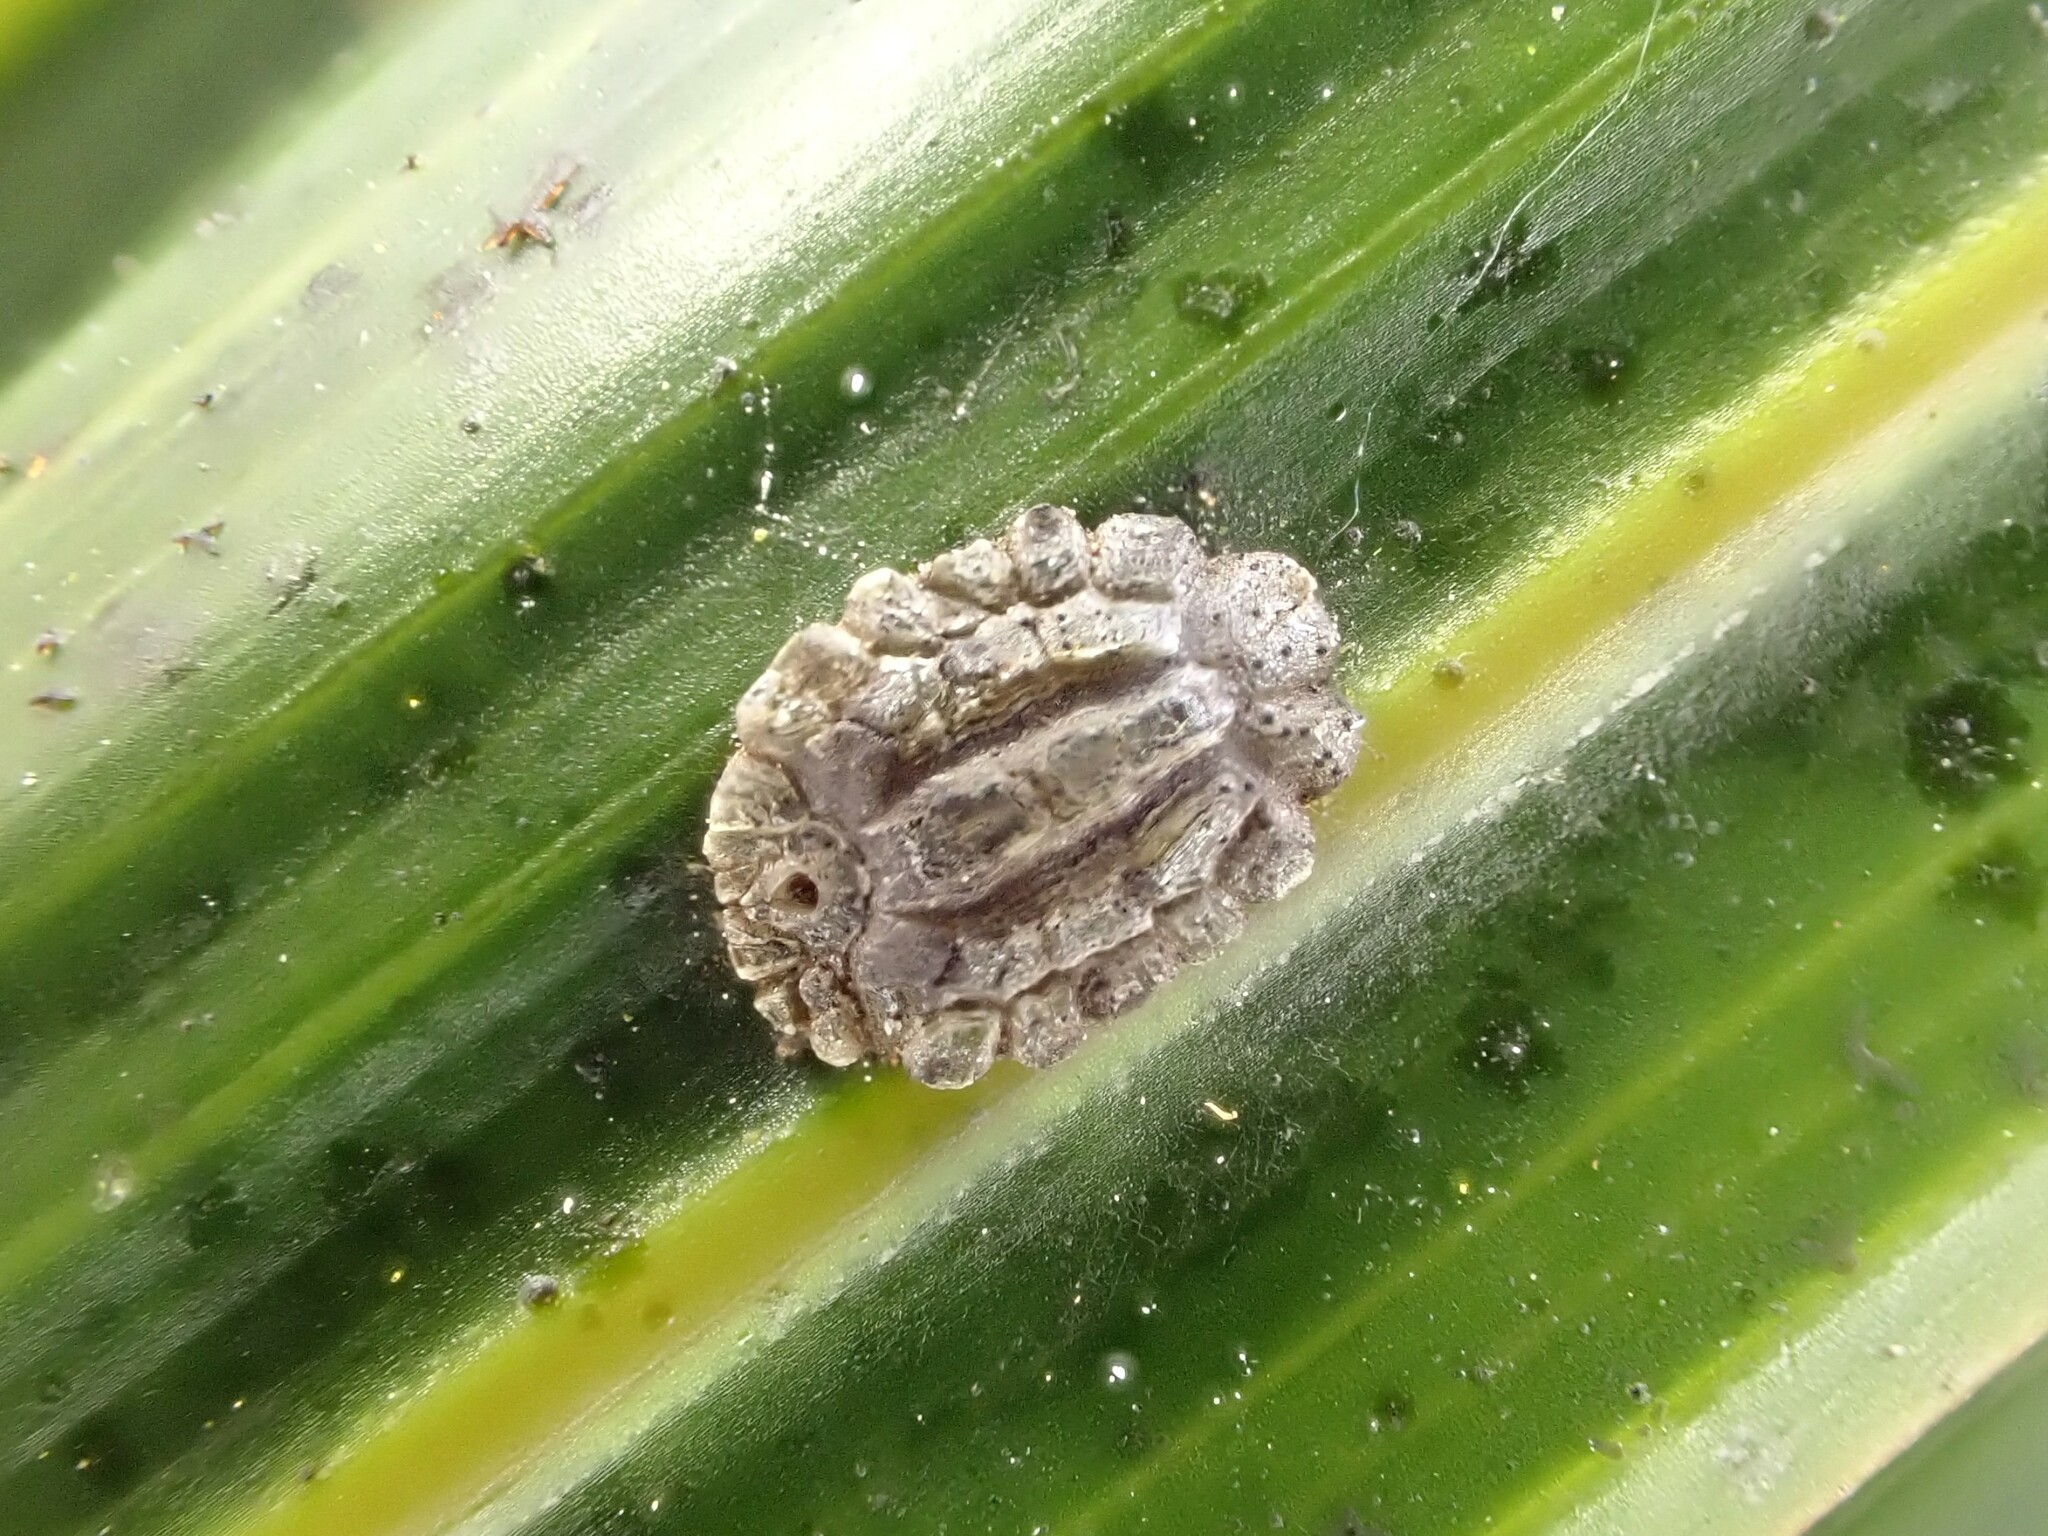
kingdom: Animalia
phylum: Arthropoda
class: Insecta
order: Hemiptera
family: Coccidae
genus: Plumichiton
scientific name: Plumichiton nikau
